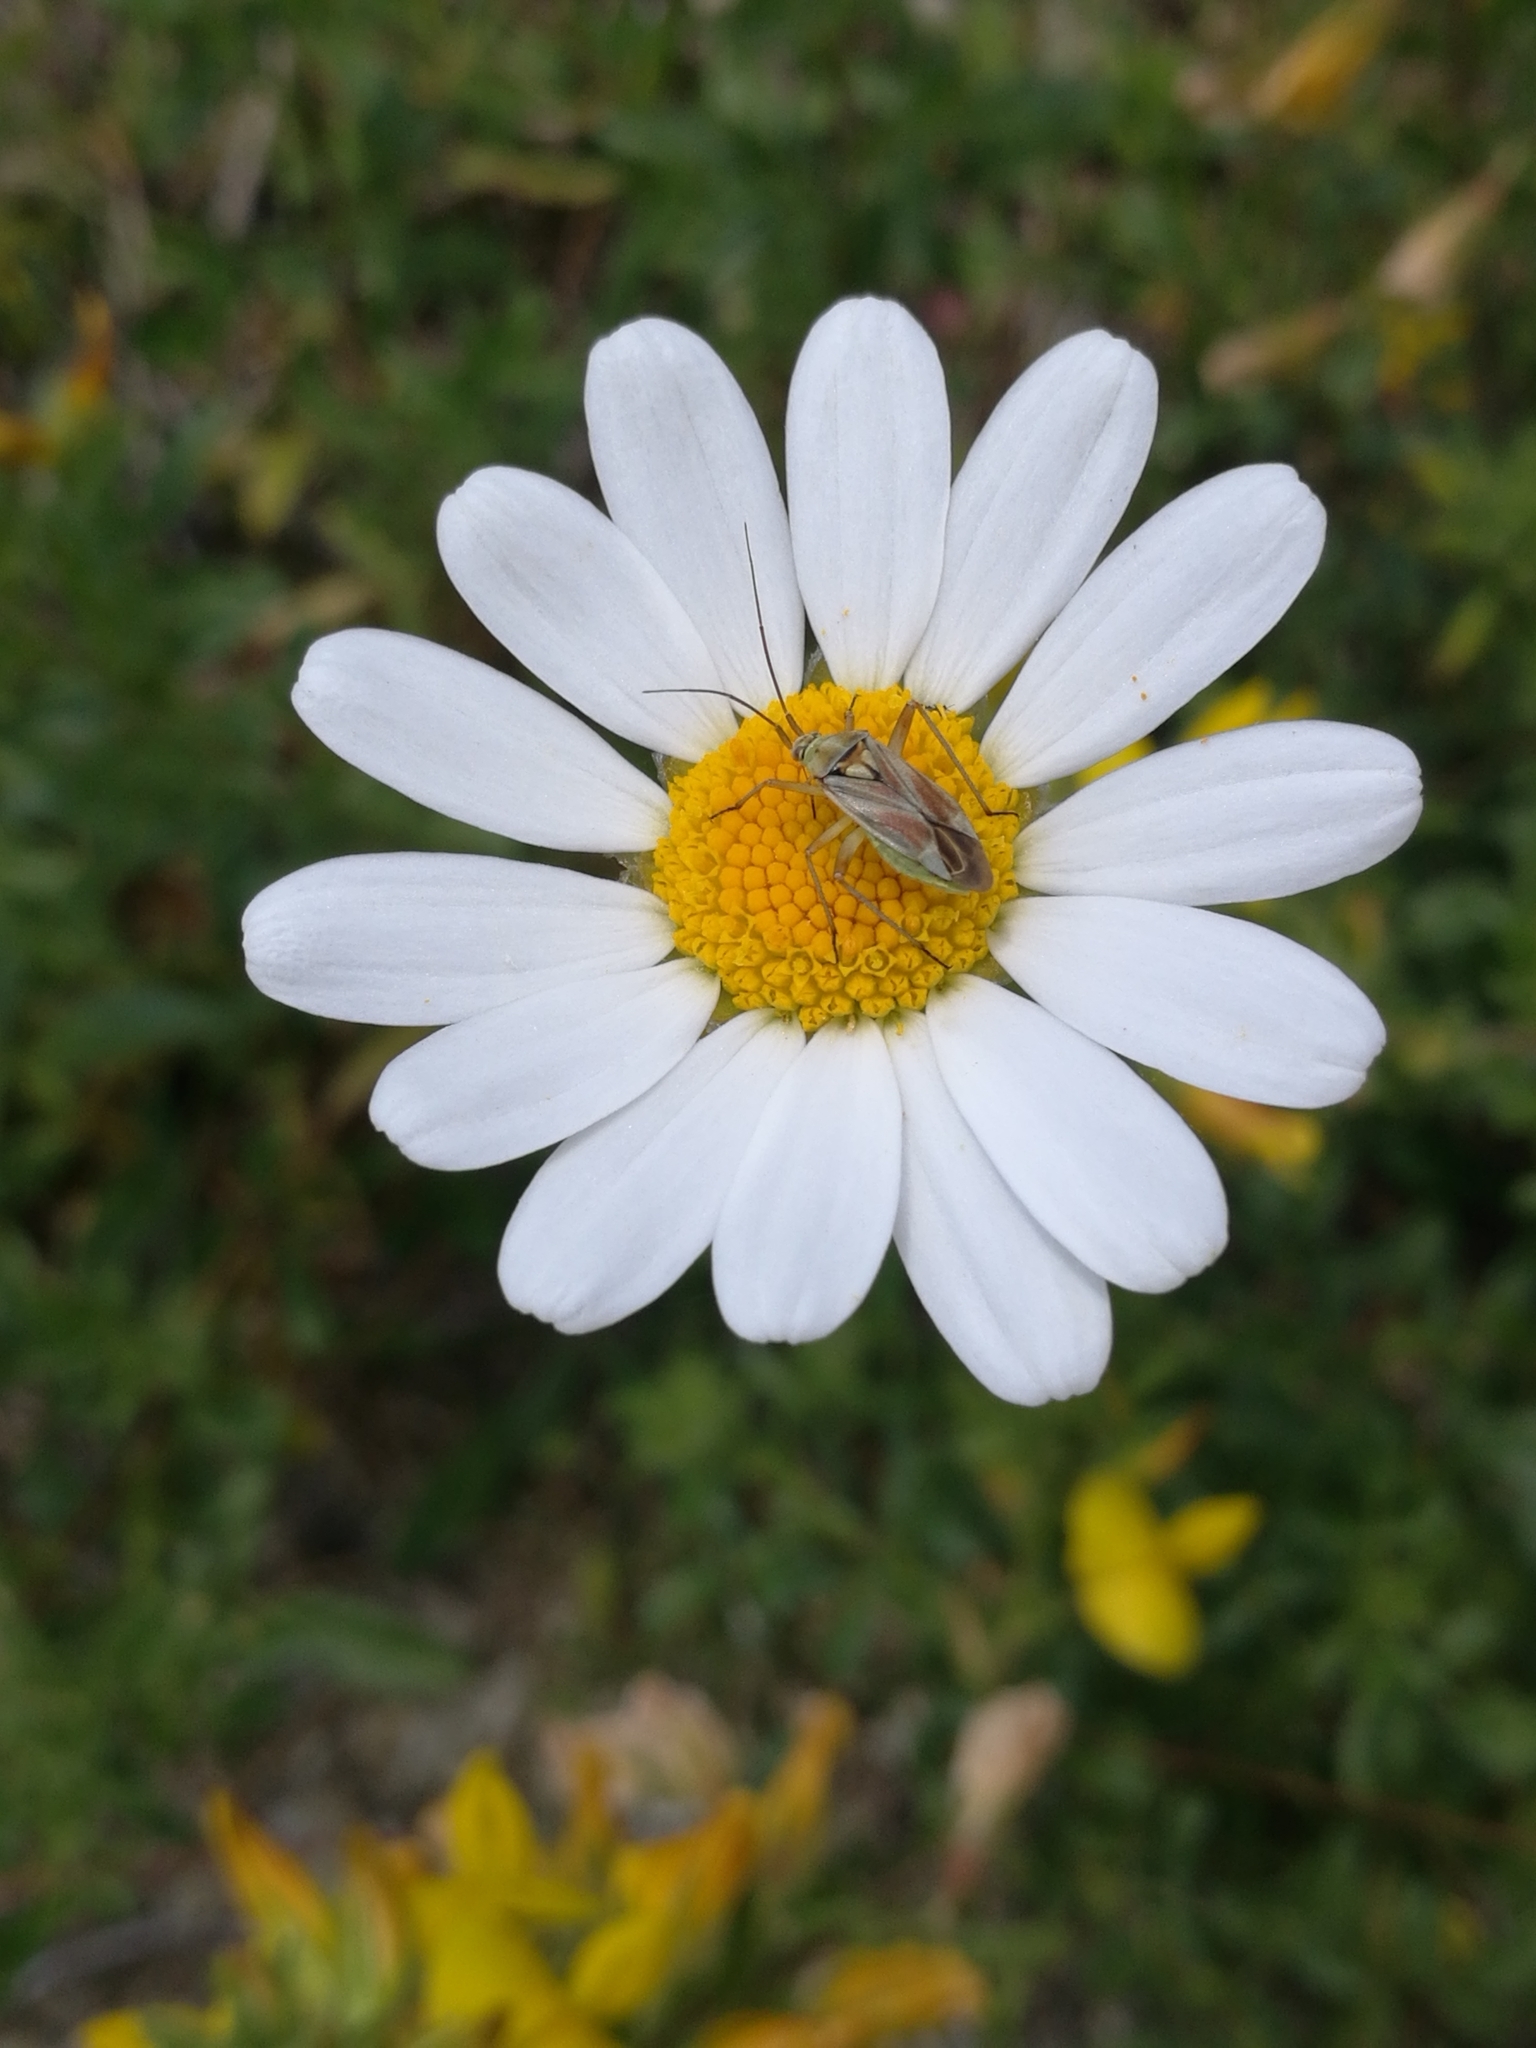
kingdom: Animalia
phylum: Arthropoda
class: Insecta
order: Hemiptera
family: Miridae
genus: Calocoris
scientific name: Calocoris roseomaculatus
